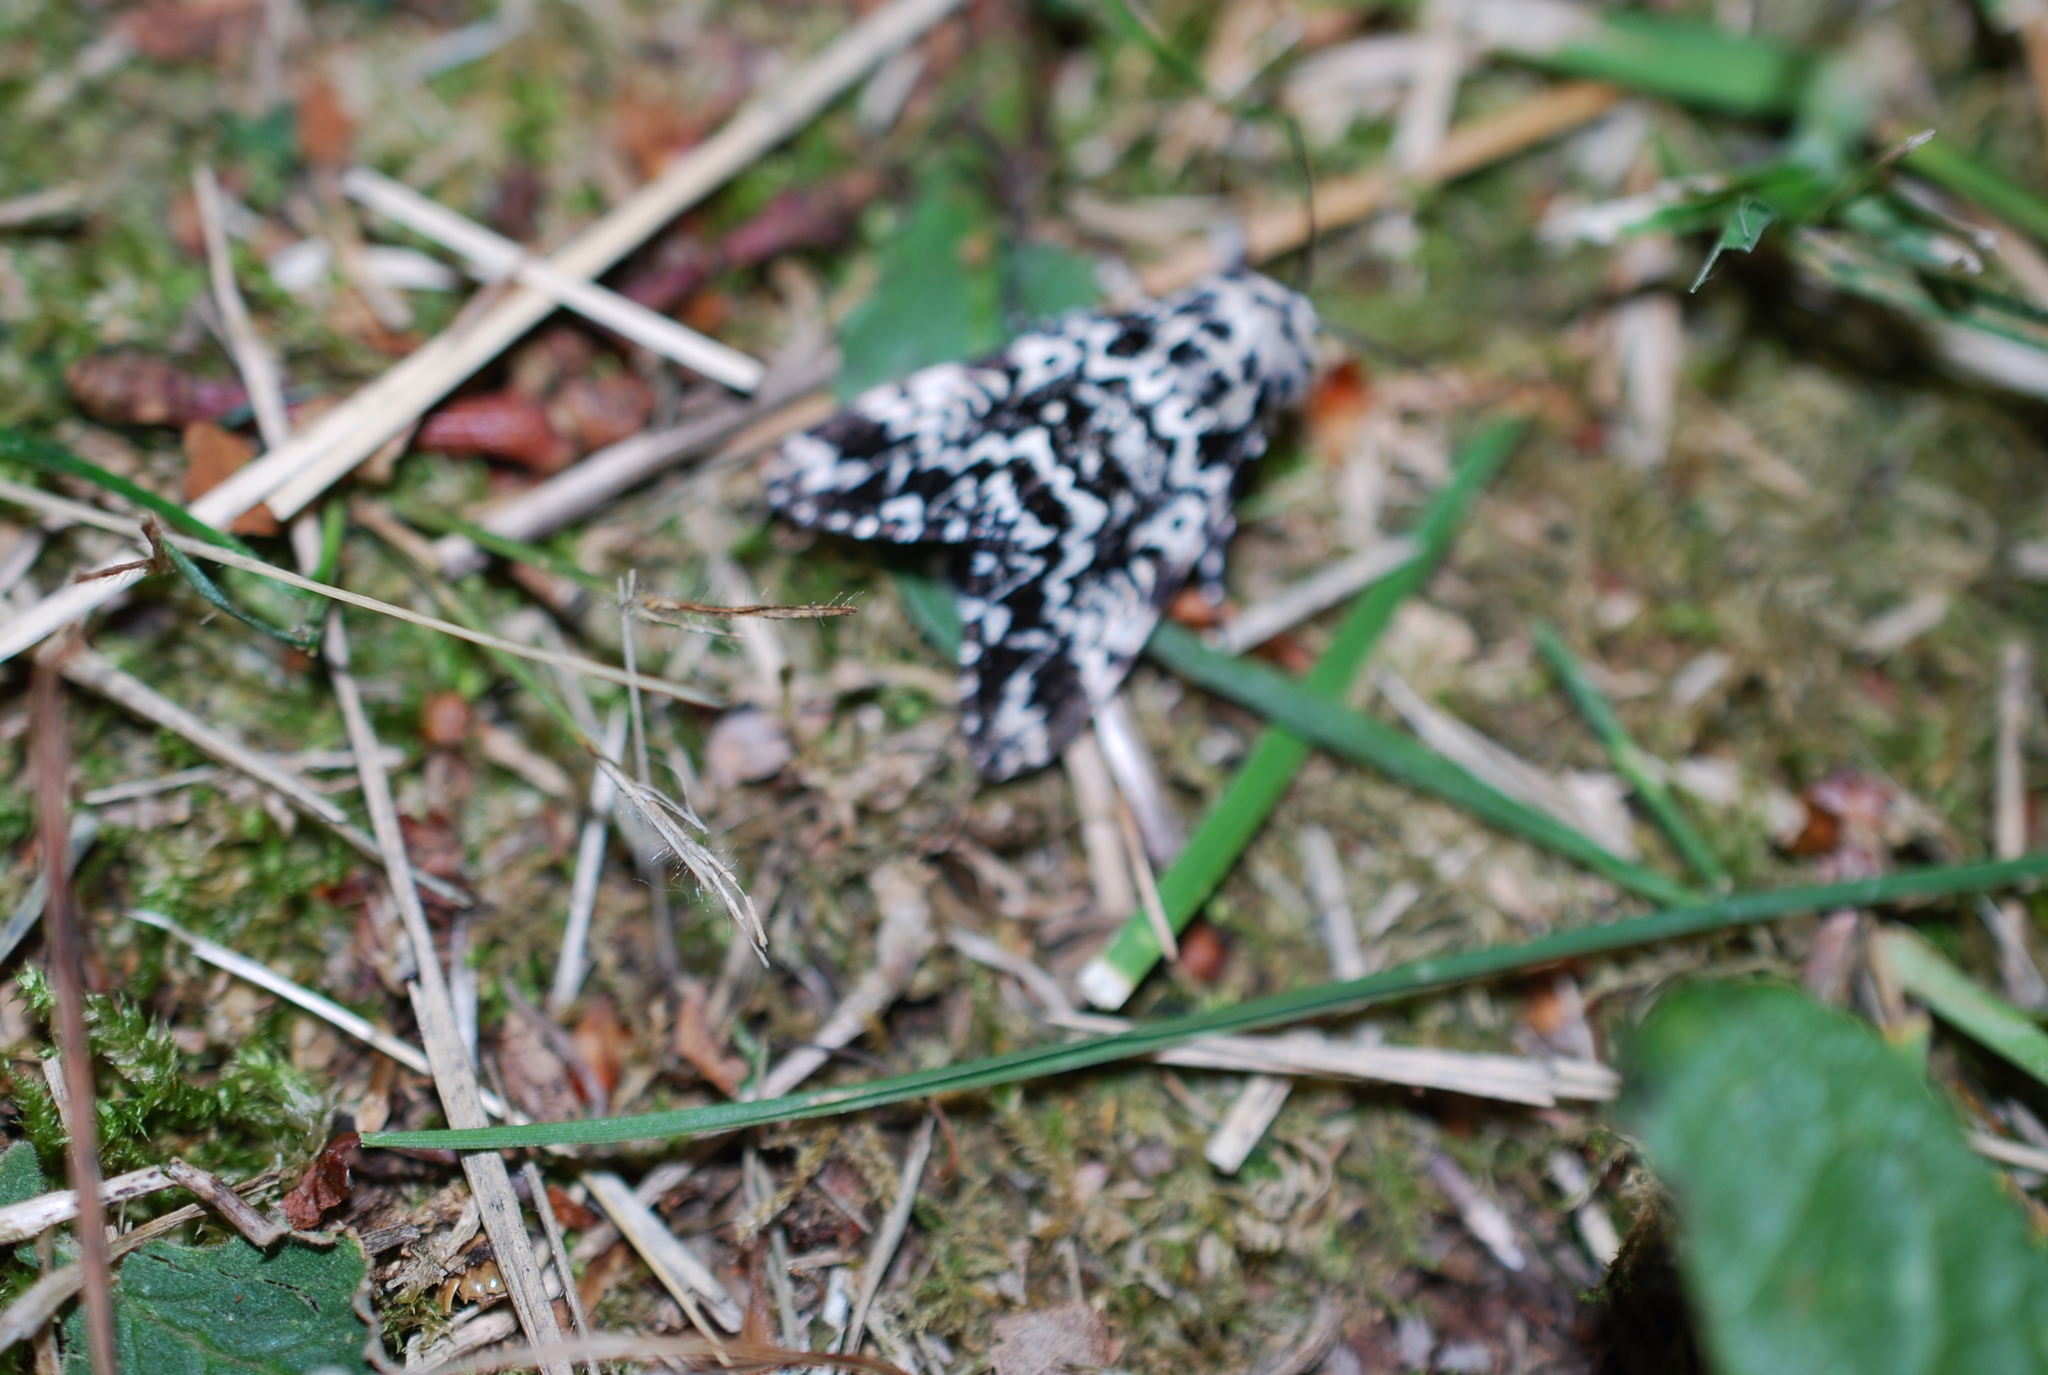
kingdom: Animalia
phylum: Arthropoda
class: Insecta
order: Lepidoptera
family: Noctuidae
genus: Panthea
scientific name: Panthea coenobita
